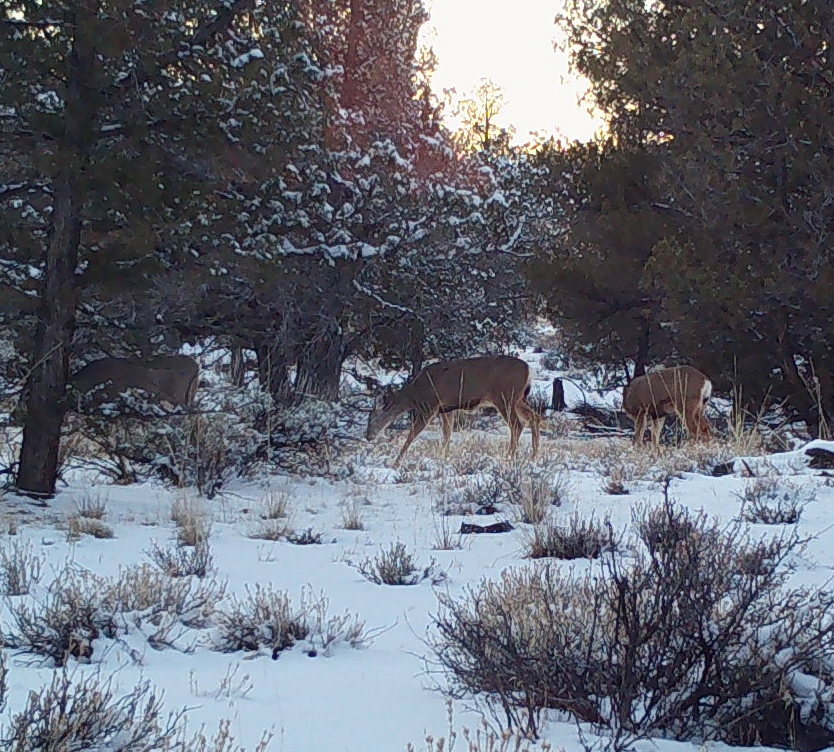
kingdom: Animalia
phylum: Chordata
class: Mammalia
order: Artiodactyla
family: Cervidae
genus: Odocoileus
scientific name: Odocoileus hemionus
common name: Mule deer
